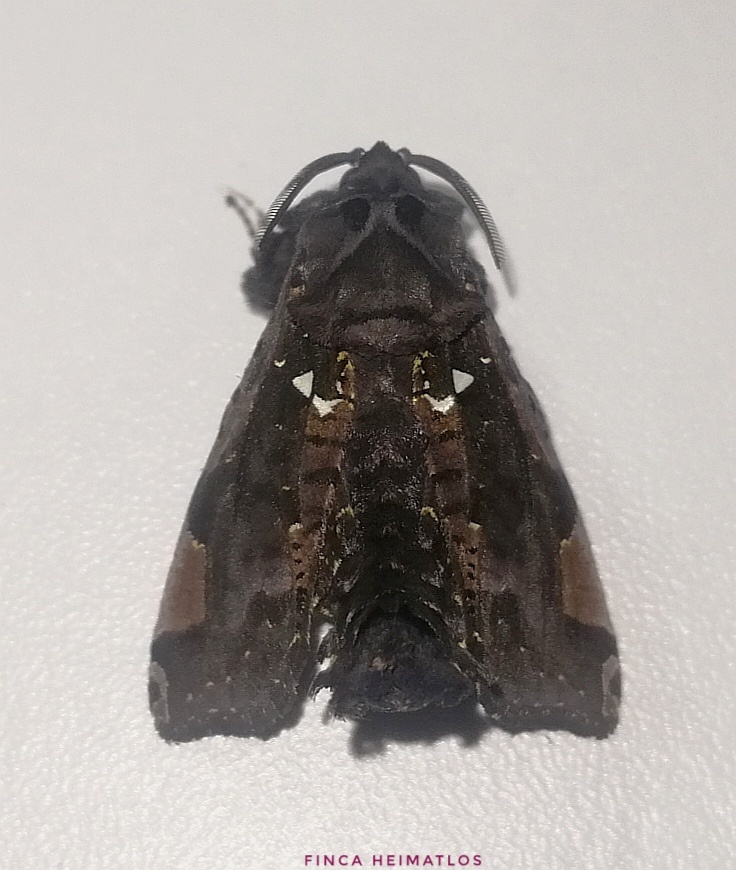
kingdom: Animalia
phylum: Arthropoda
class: Insecta
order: Lepidoptera
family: Cossidae
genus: Langsdorfia
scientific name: Langsdorfia franckii
